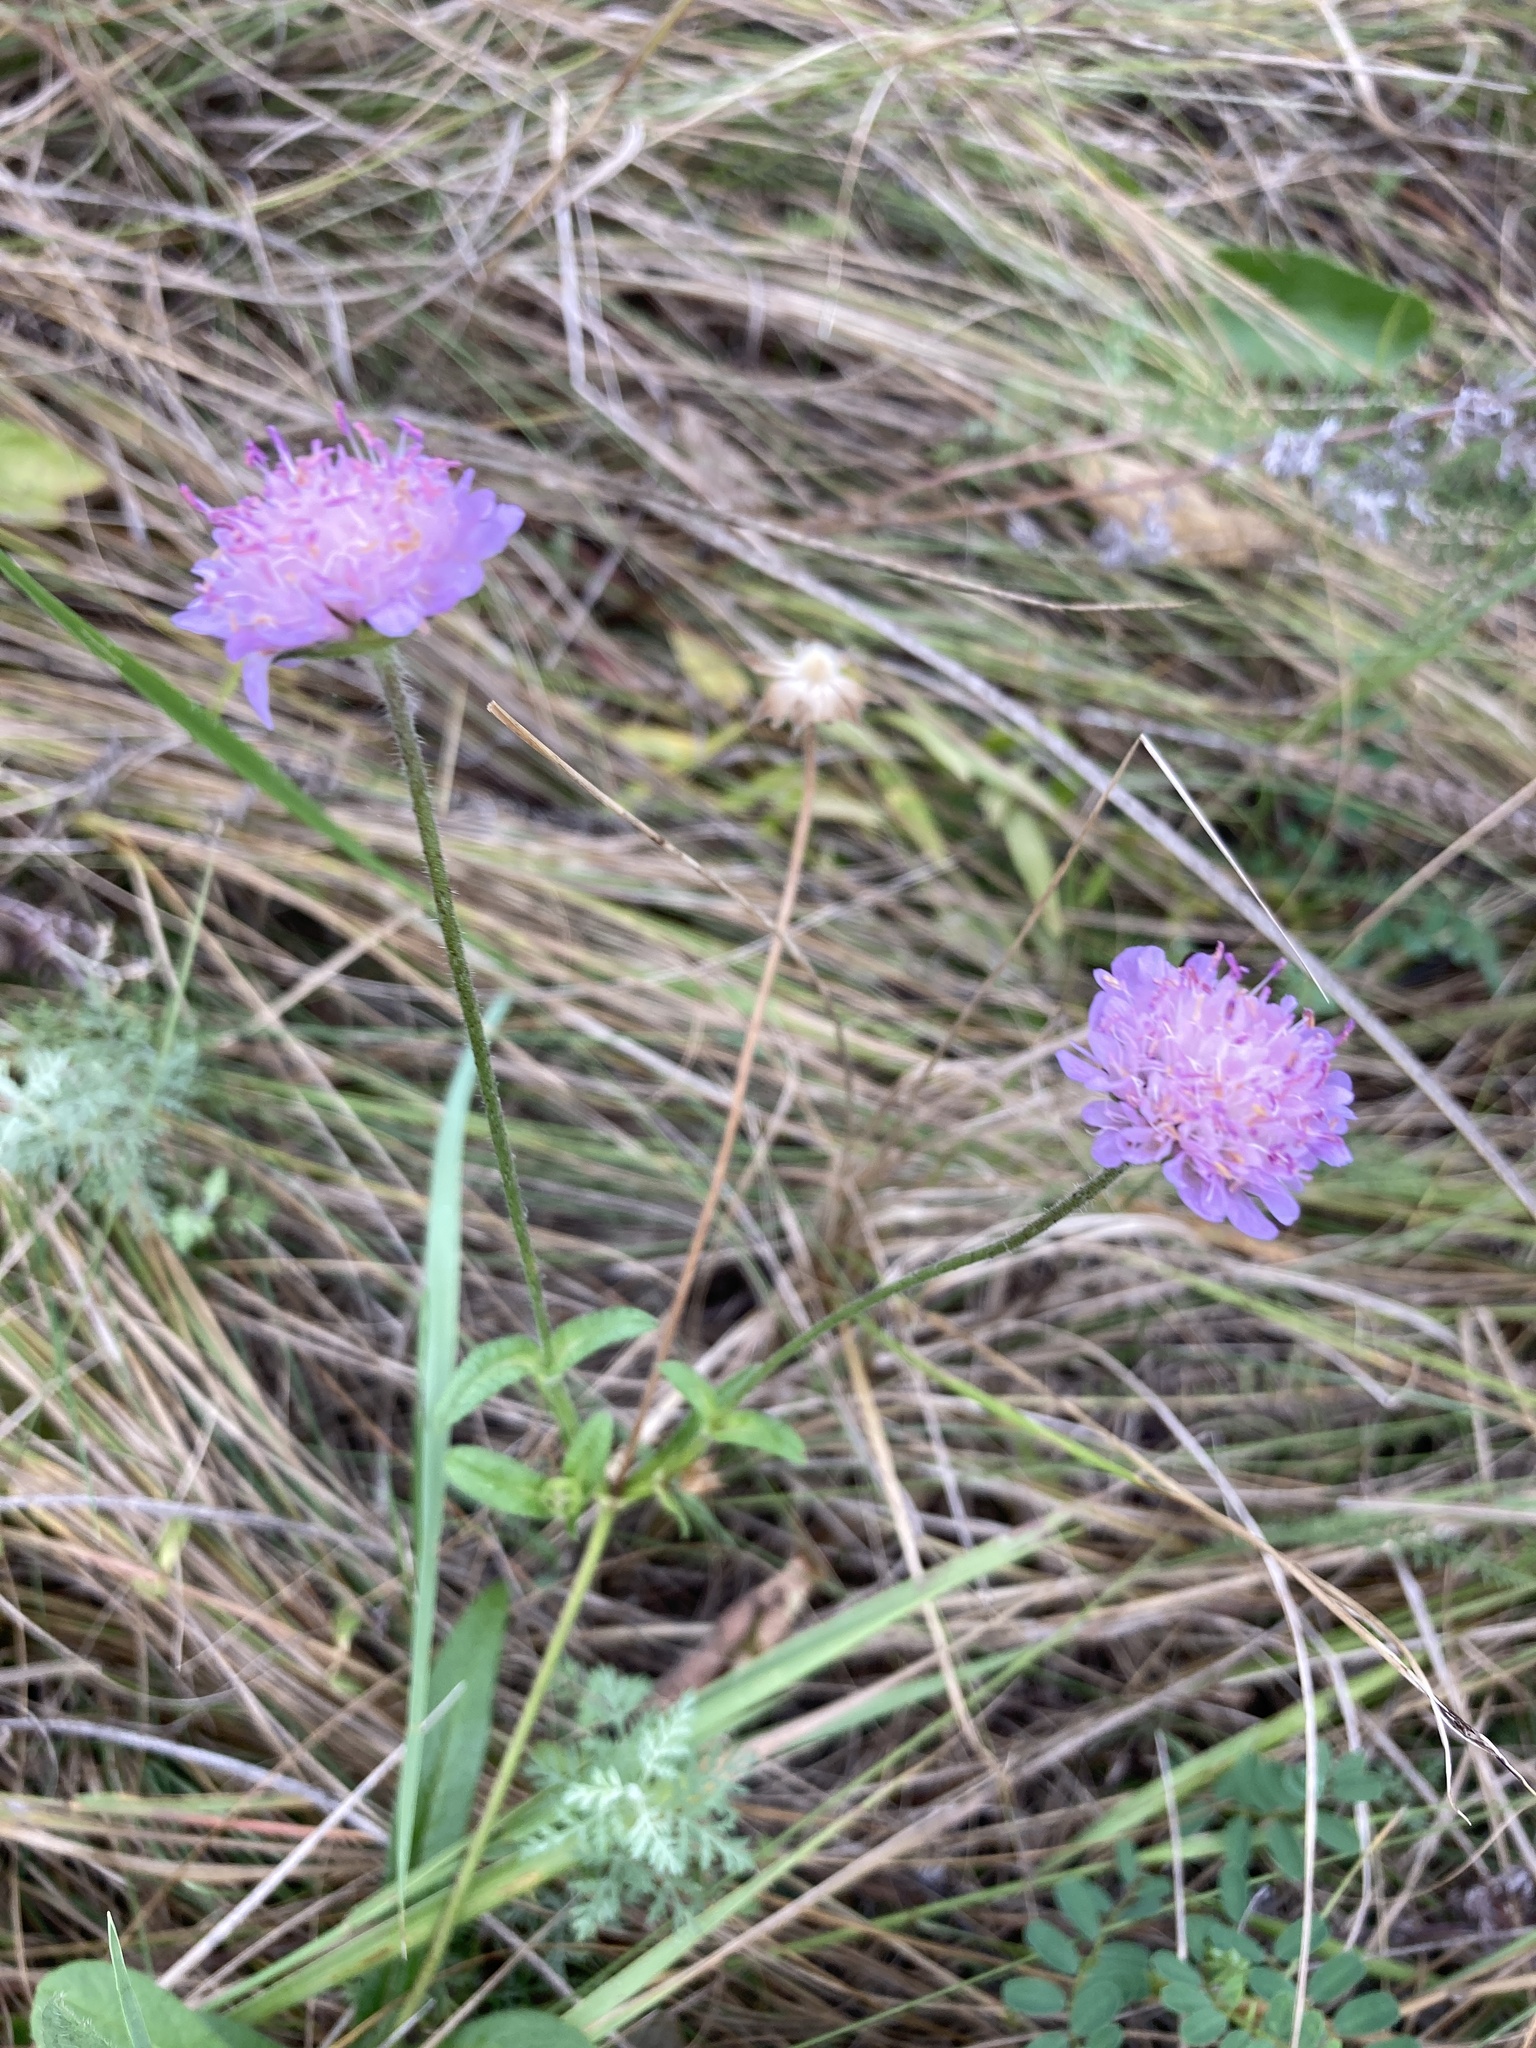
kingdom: Plantae
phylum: Tracheophyta
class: Magnoliopsida
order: Dipsacales
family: Caprifoliaceae
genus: Knautia
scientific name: Knautia arvensis
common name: Field scabiosa
